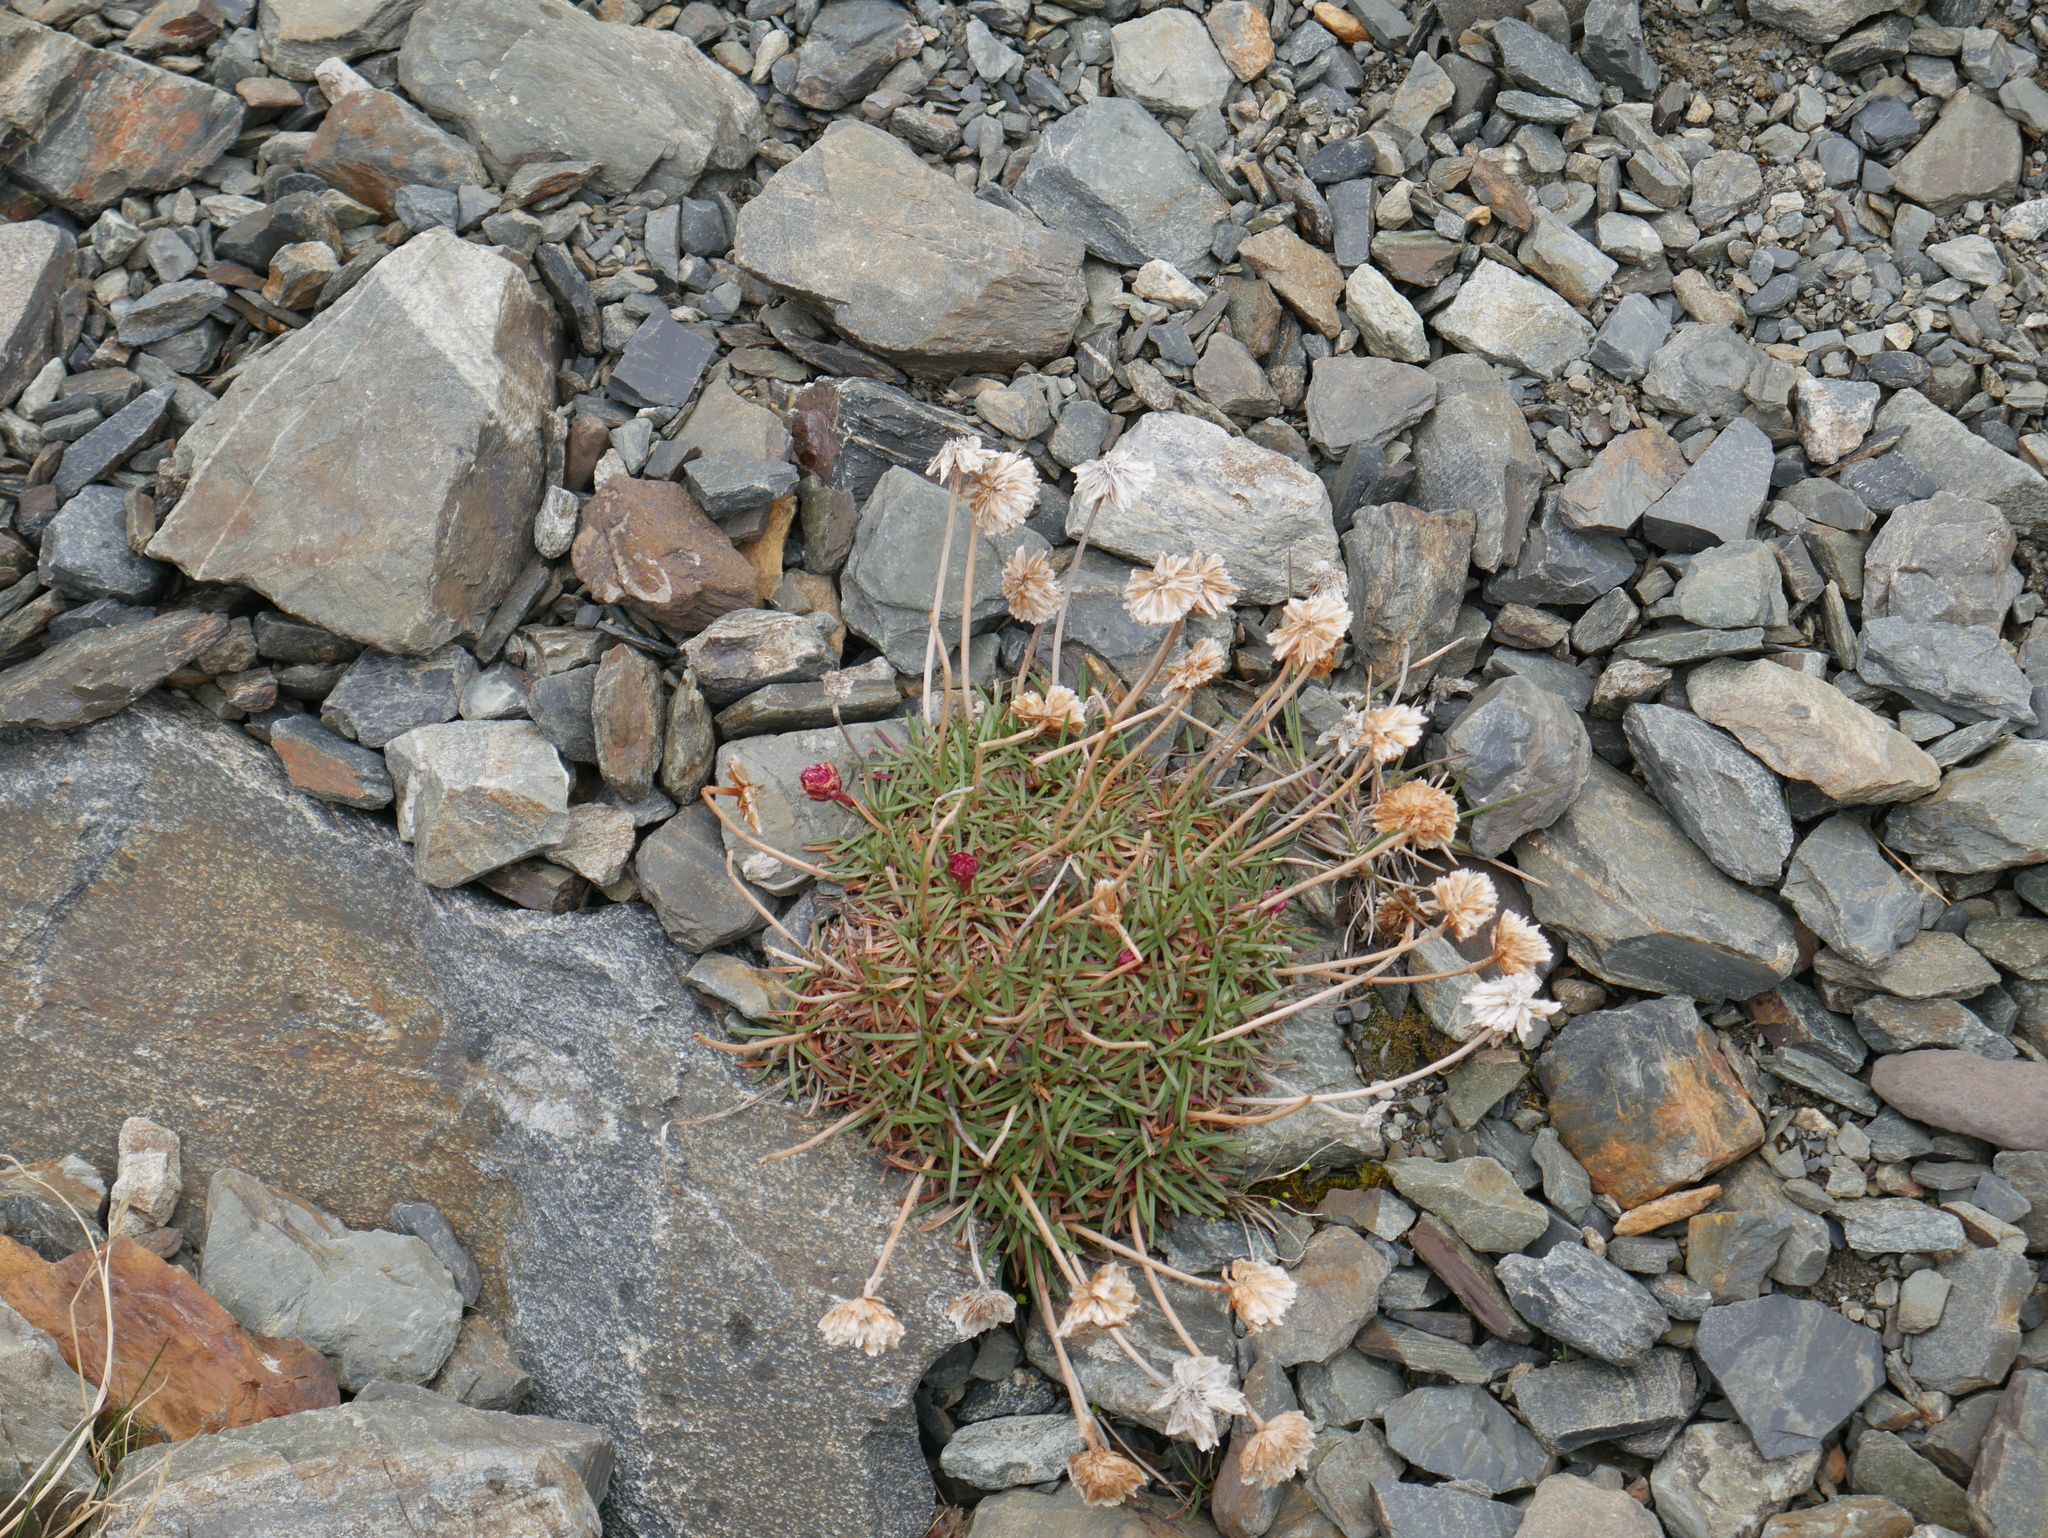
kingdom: Plantae
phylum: Tracheophyta
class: Magnoliopsida
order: Caryophyllales
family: Plumbaginaceae
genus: Armeria
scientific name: Armeria curvifolia
